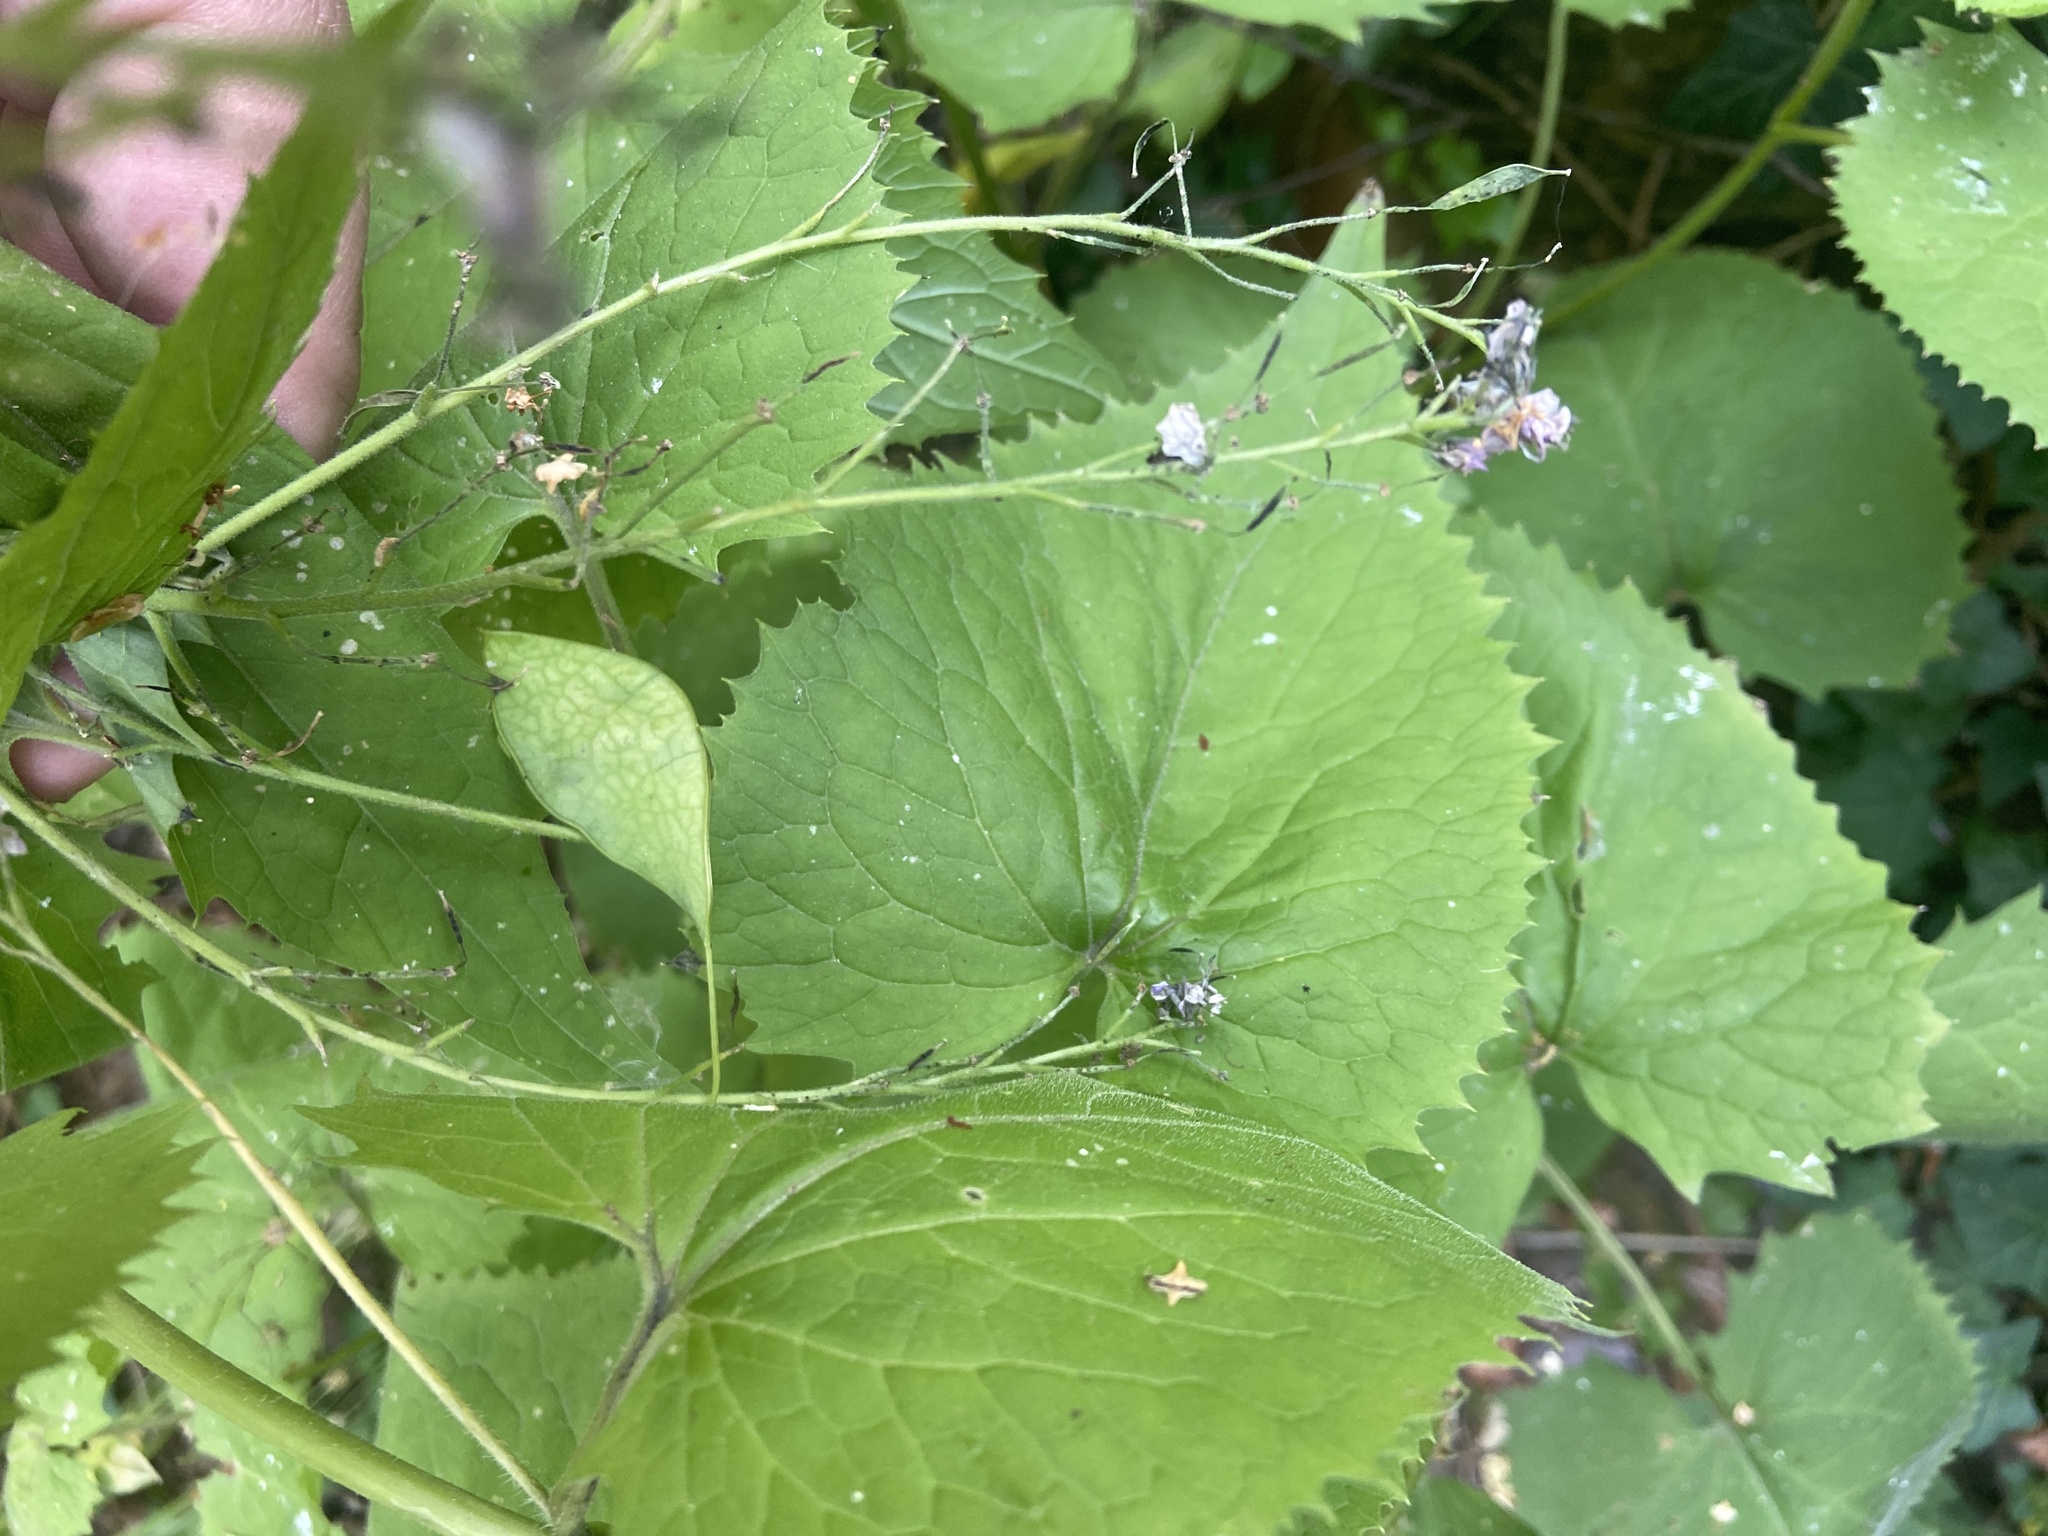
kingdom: Plantae
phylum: Tracheophyta
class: Magnoliopsida
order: Brassicales
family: Brassicaceae
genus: Lunaria
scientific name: Lunaria rediviva
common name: Perennial honesty
